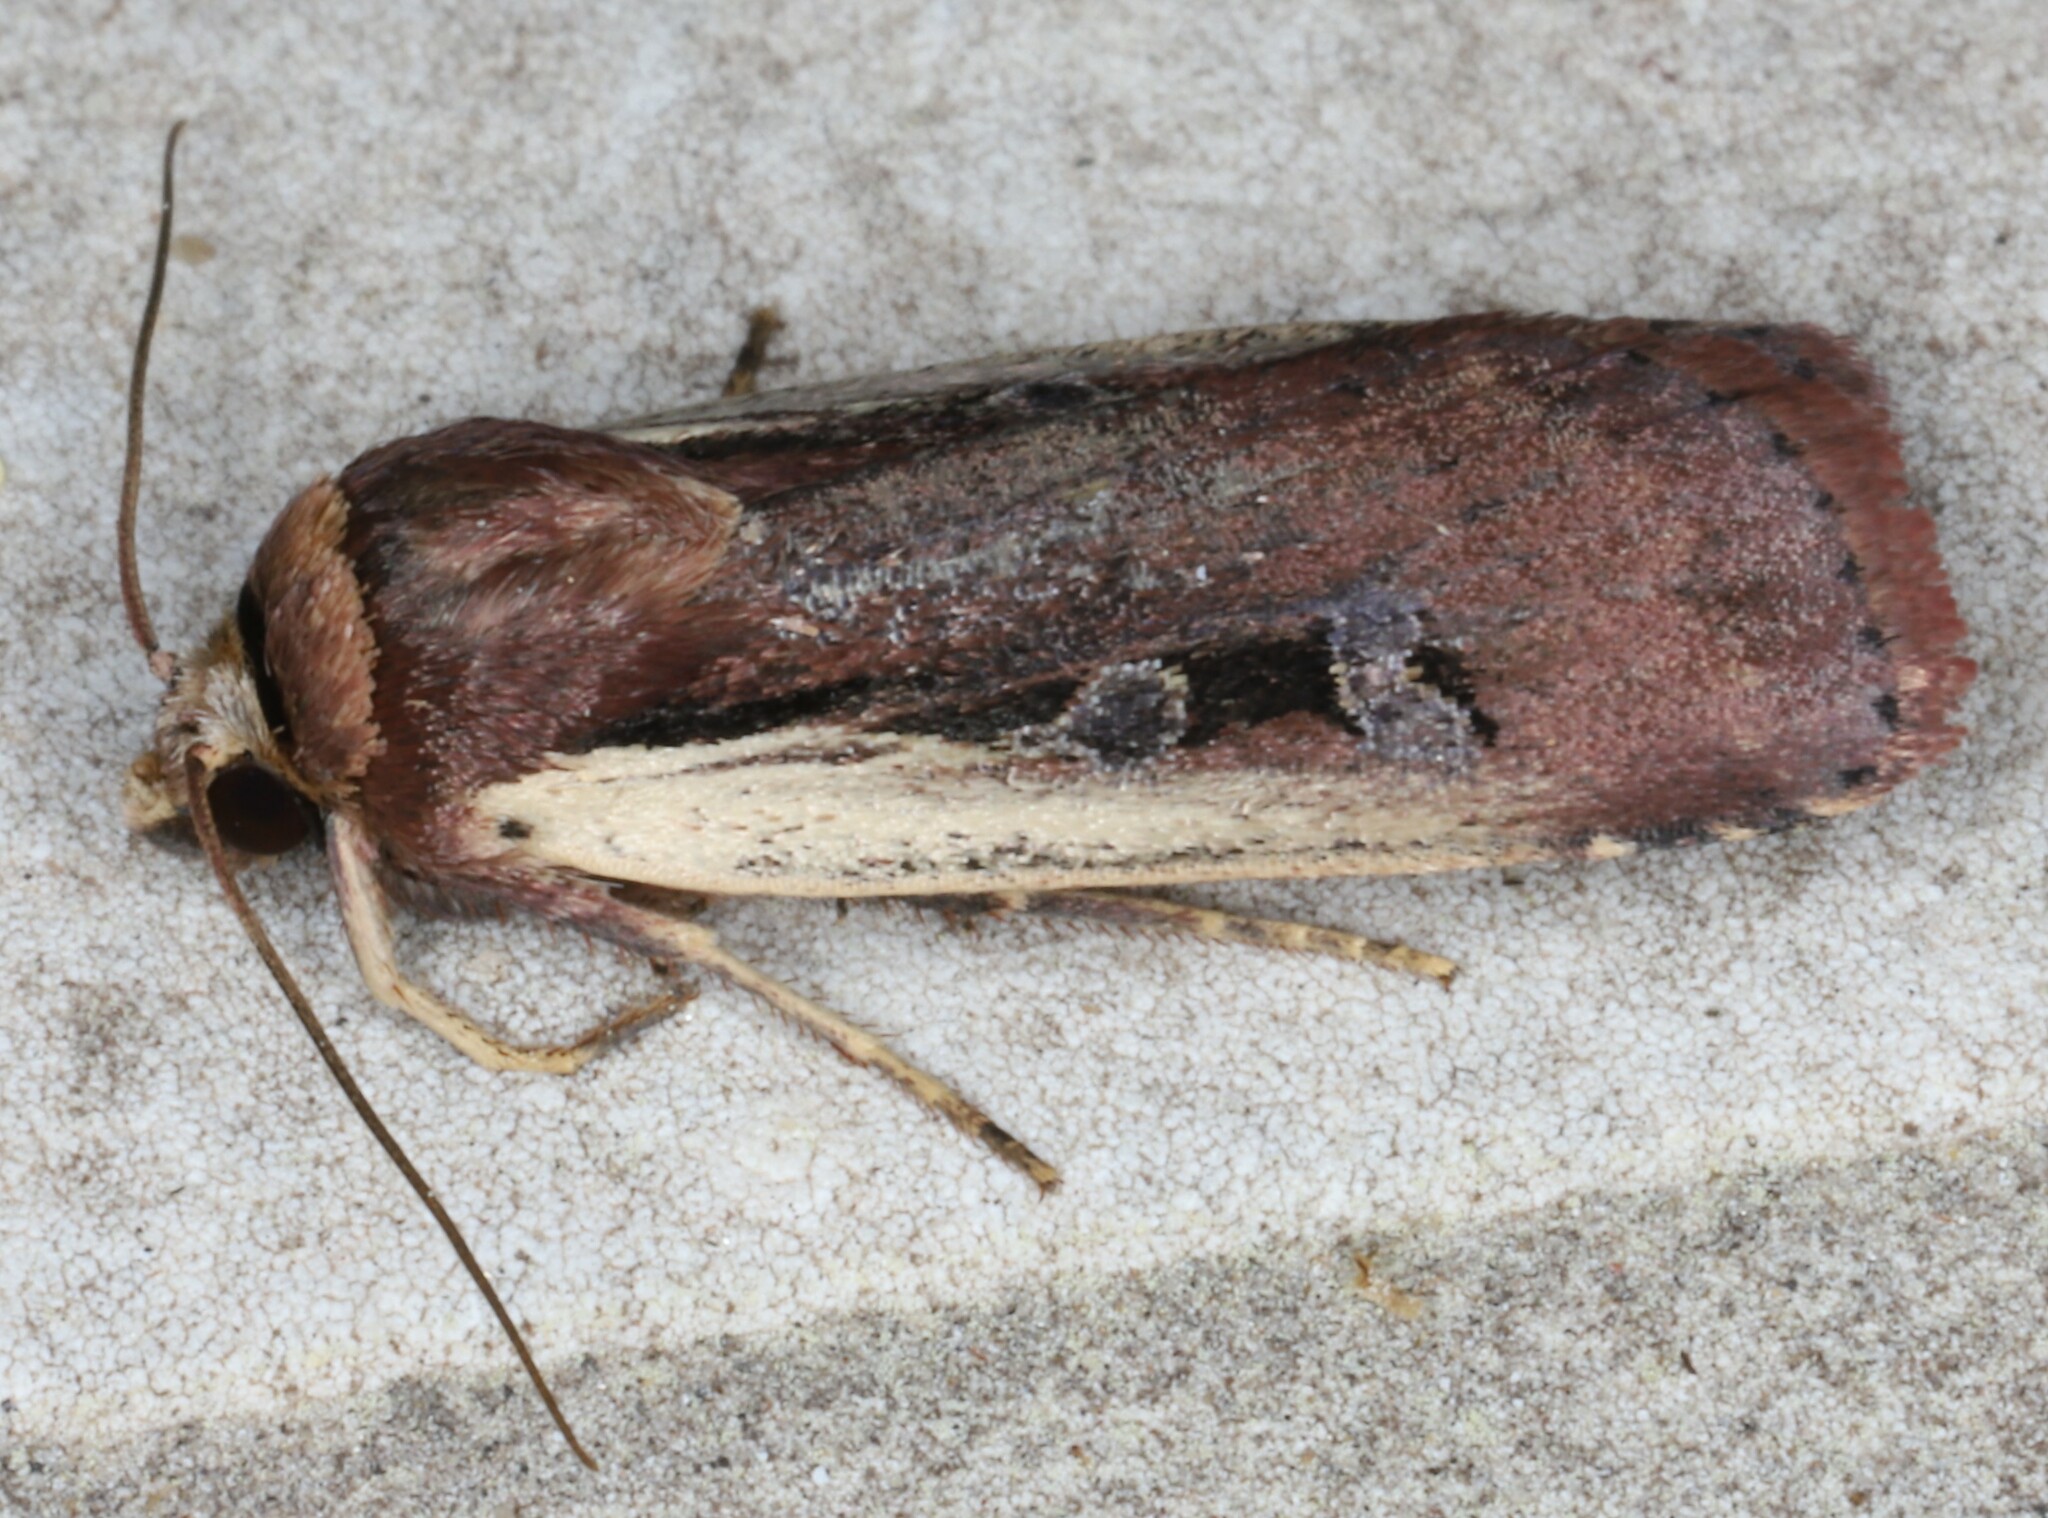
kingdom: Animalia
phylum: Arthropoda
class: Insecta
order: Lepidoptera
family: Noctuidae
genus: Ochropleura
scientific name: Ochropleura implecta
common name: Flame-shouldered dart
